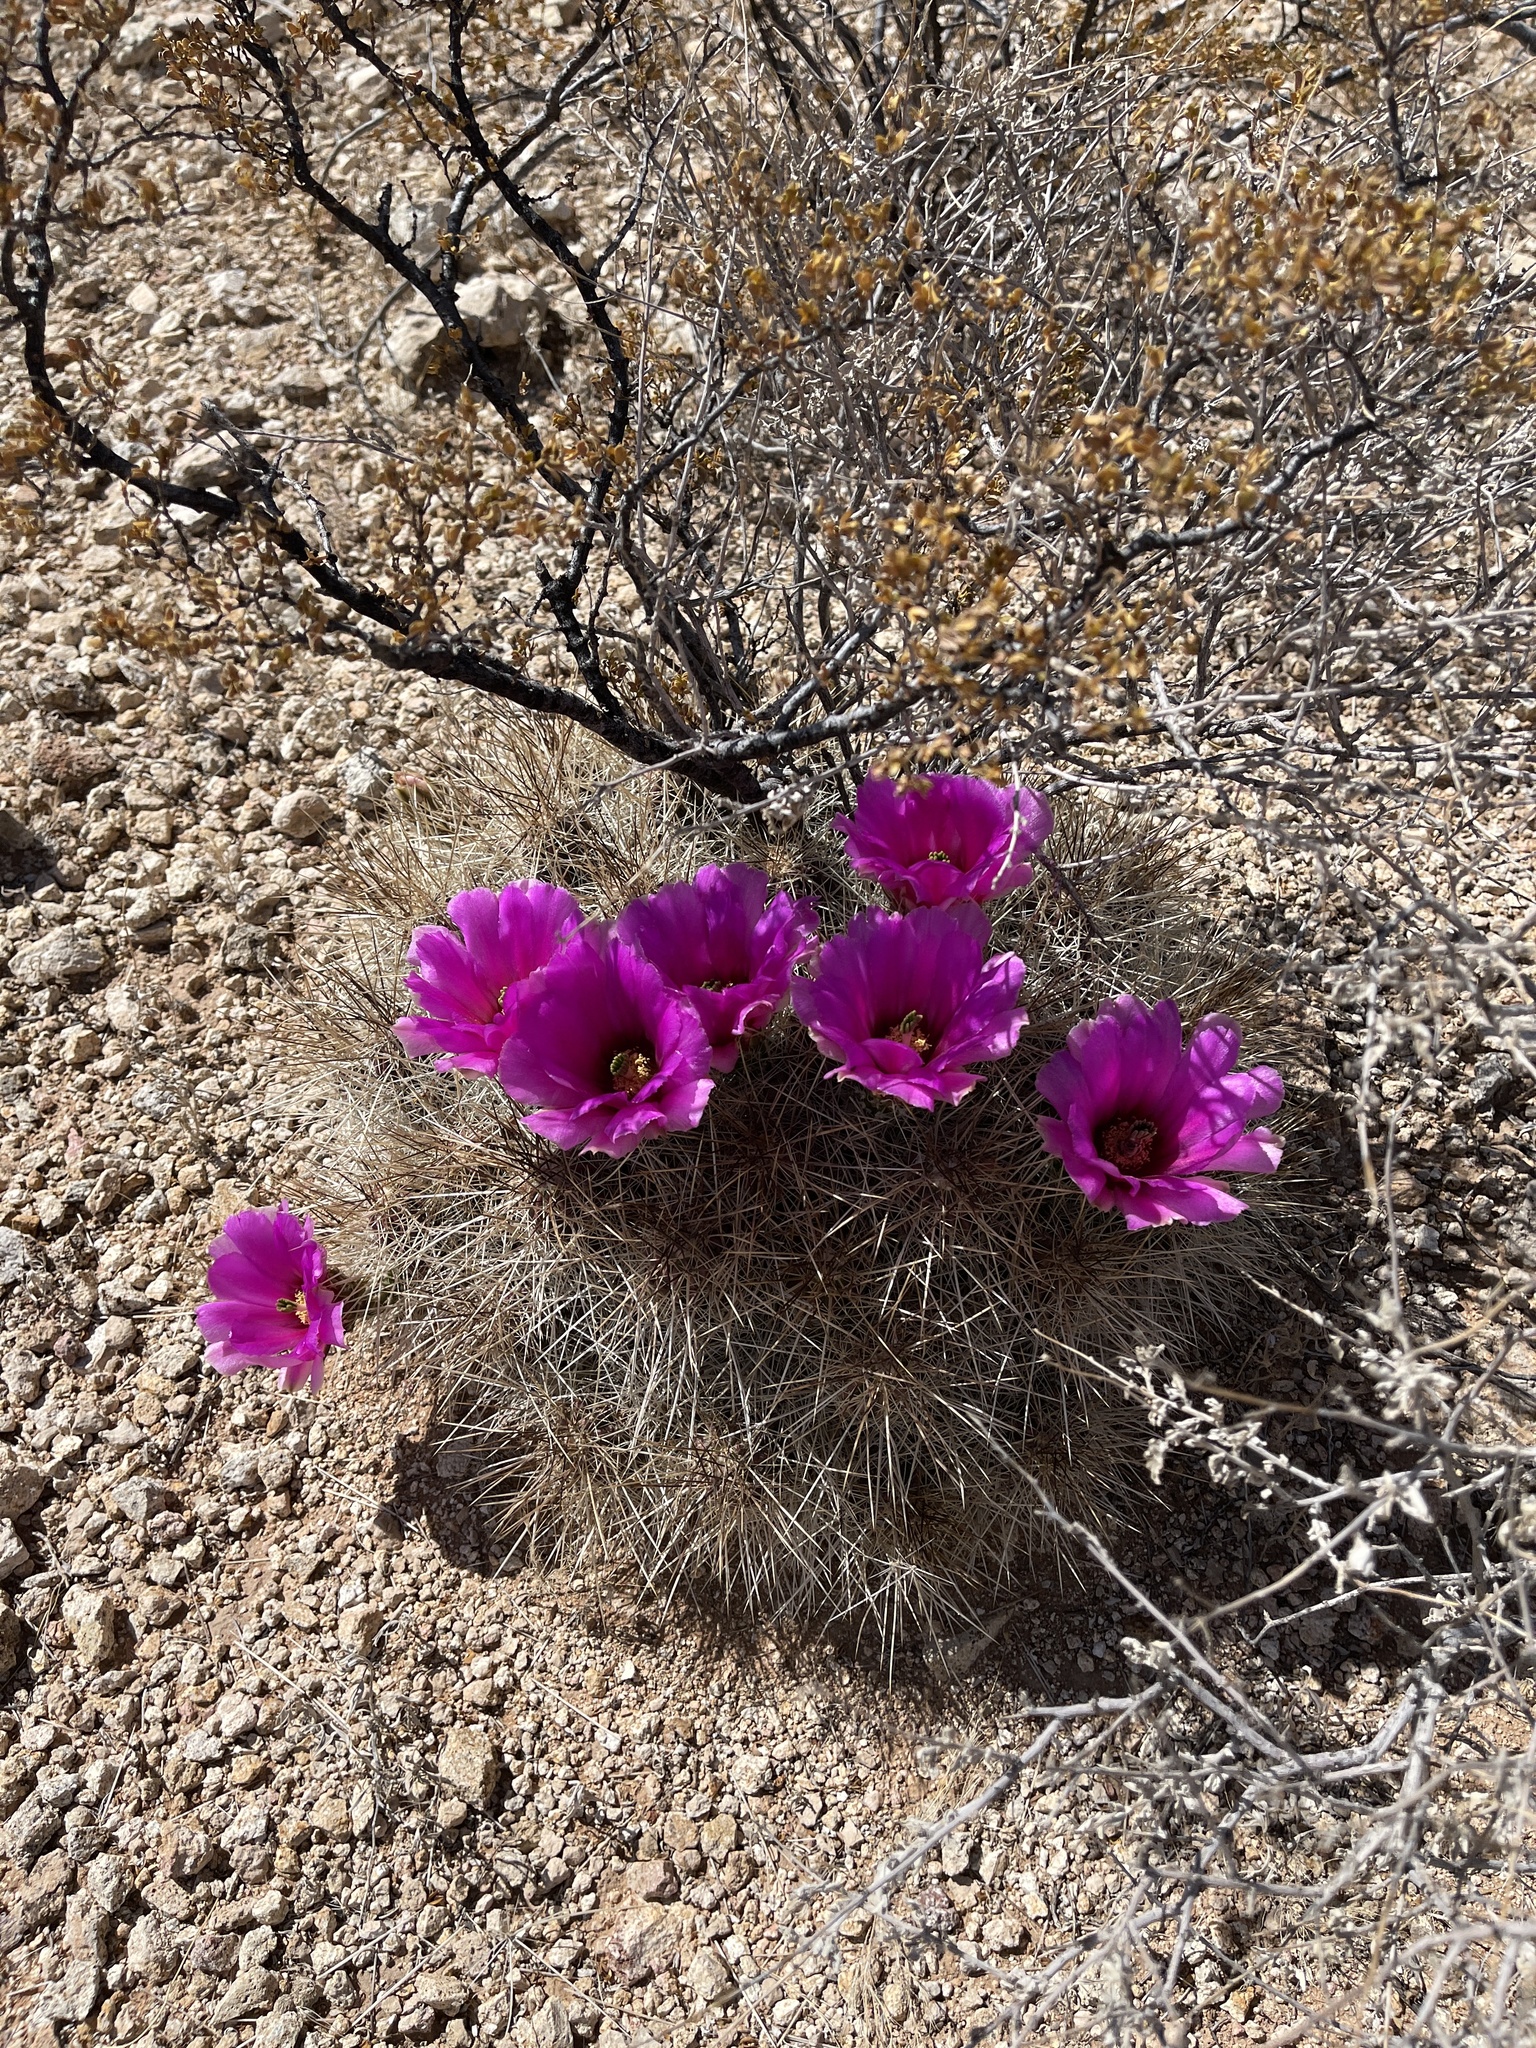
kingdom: Plantae
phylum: Tracheophyta
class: Magnoliopsida
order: Caryophyllales
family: Cactaceae
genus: Echinocereus
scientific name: Echinocereus stramineus
